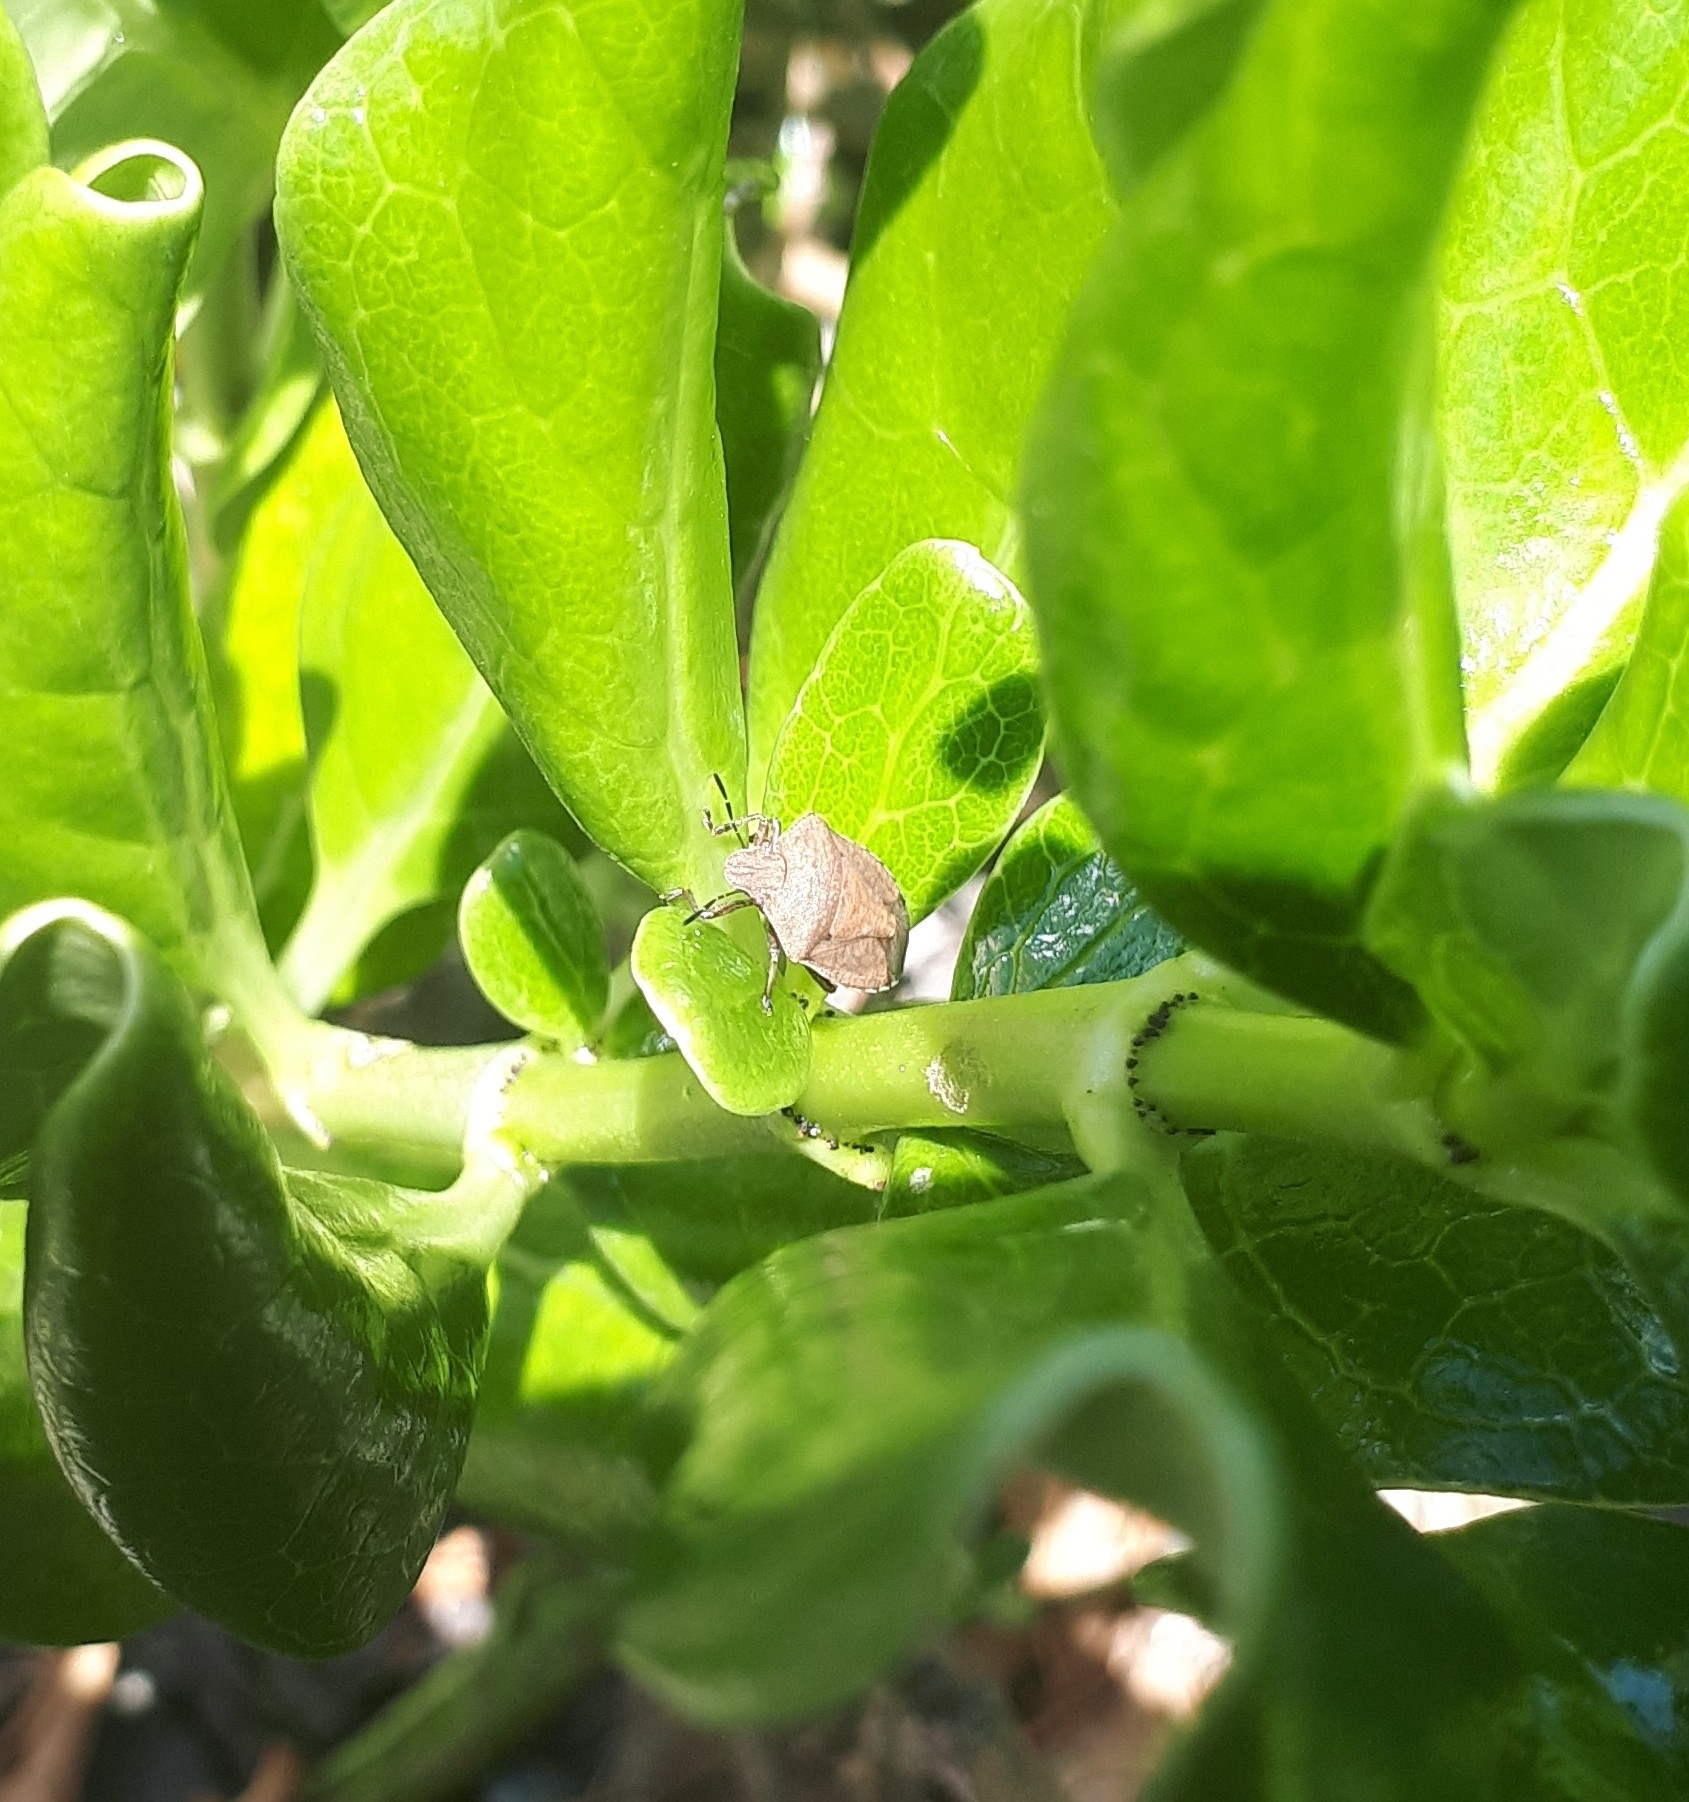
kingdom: Animalia
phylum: Arthropoda
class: Insecta
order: Hemiptera
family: Pentatomidae
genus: Dictyotus
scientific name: Dictyotus caenosus
